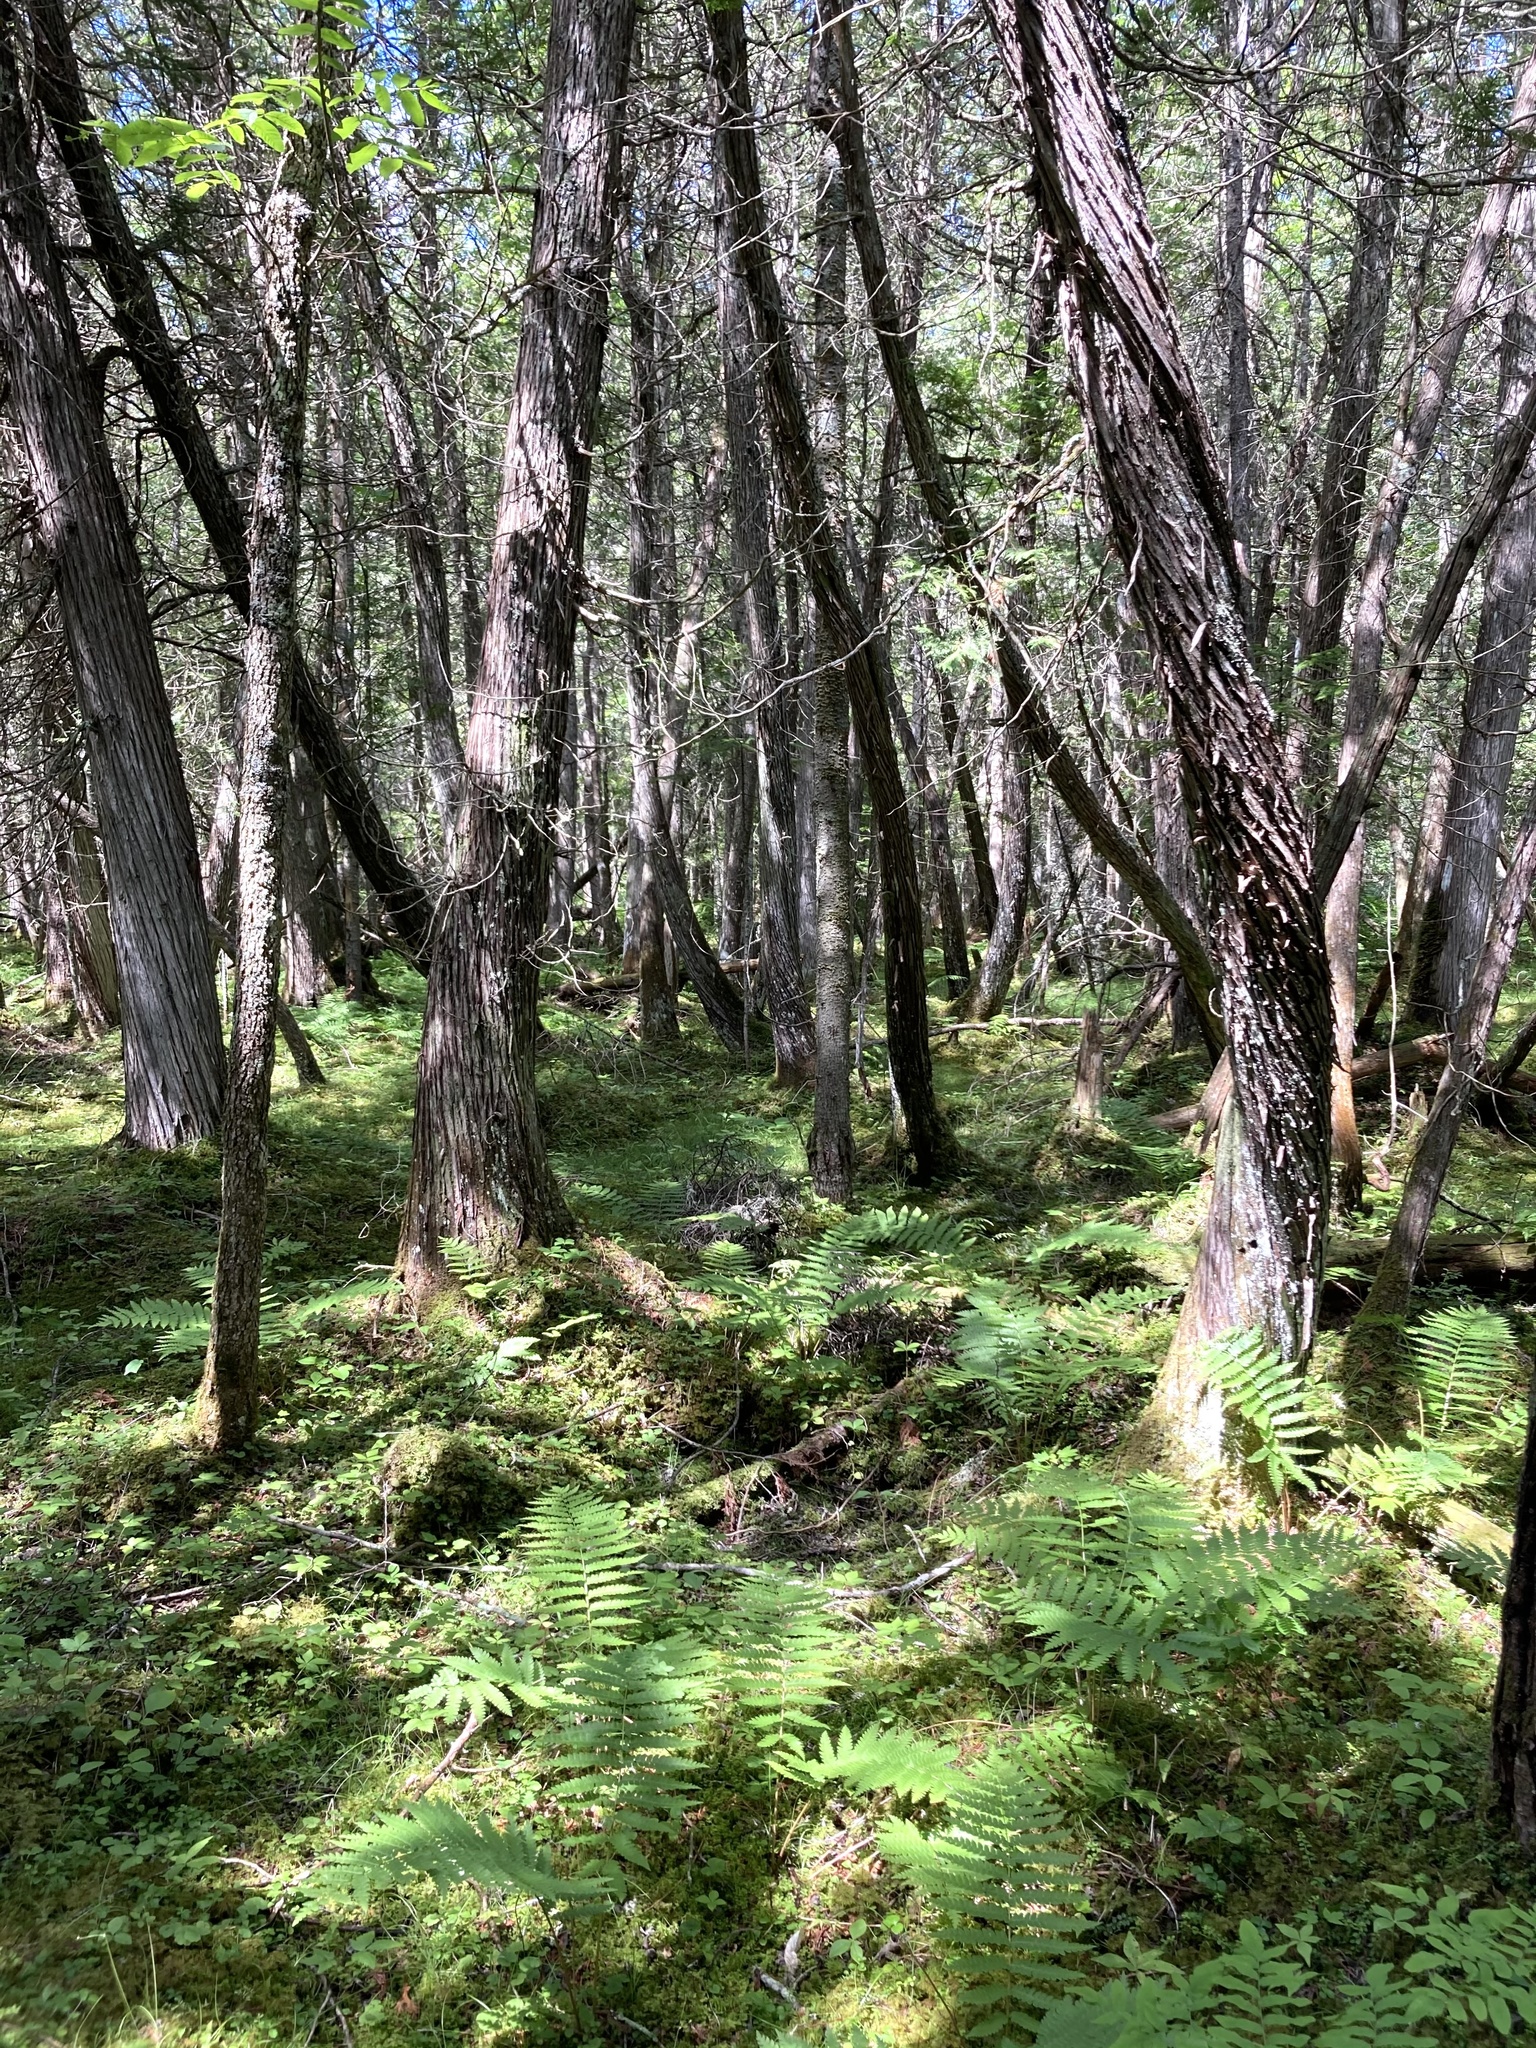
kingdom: Plantae
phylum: Tracheophyta
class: Pinopsida
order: Pinales
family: Cupressaceae
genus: Thuja
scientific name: Thuja occidentalis
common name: Northern white-cedar
